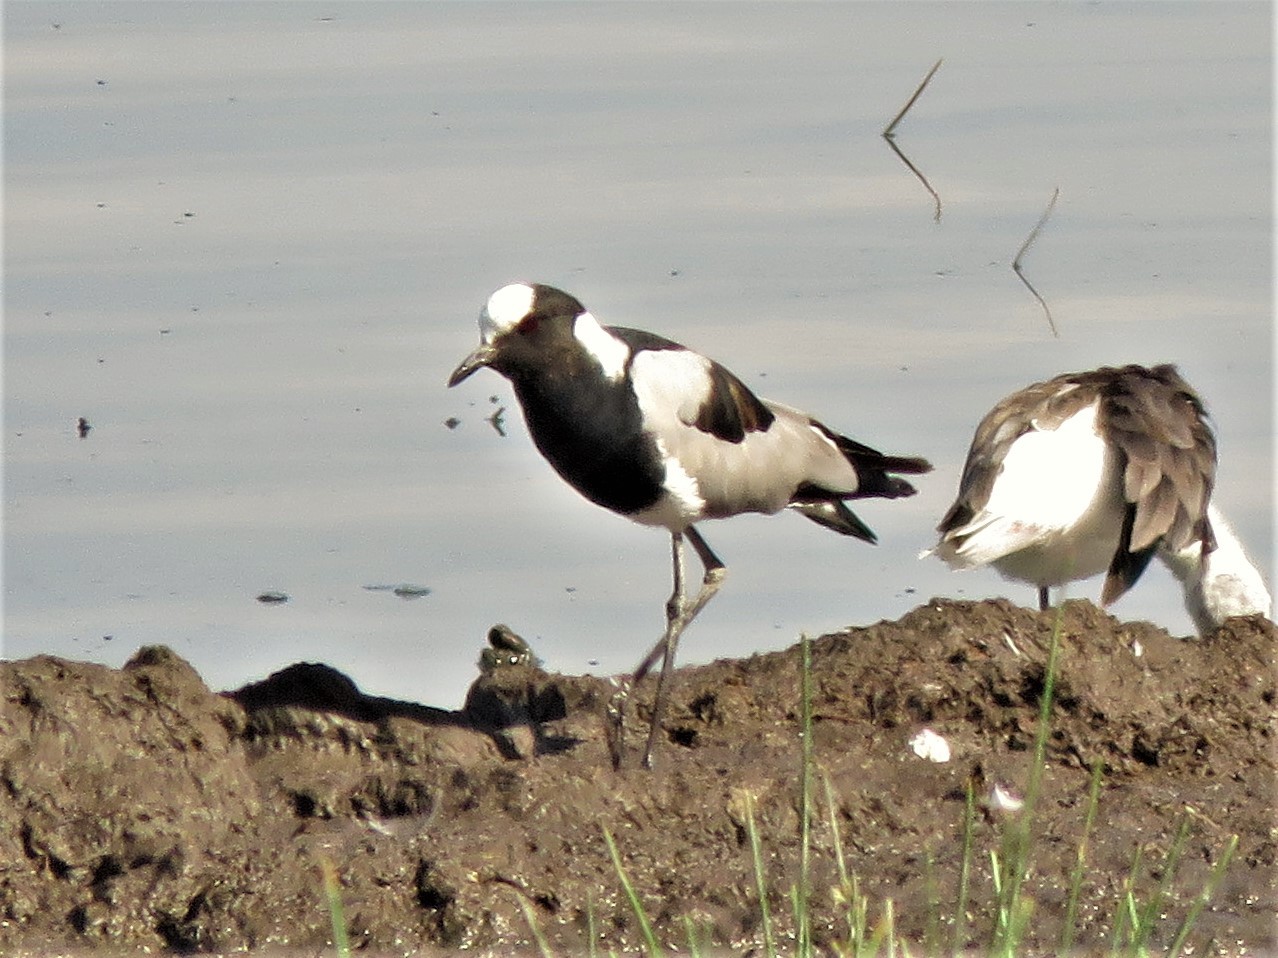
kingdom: Animalia
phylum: Chordata
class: Aves
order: Charadriiformes
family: Charadriidae
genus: Vanellus
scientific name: Vanellus armatus
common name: Blacksmith lapwing
